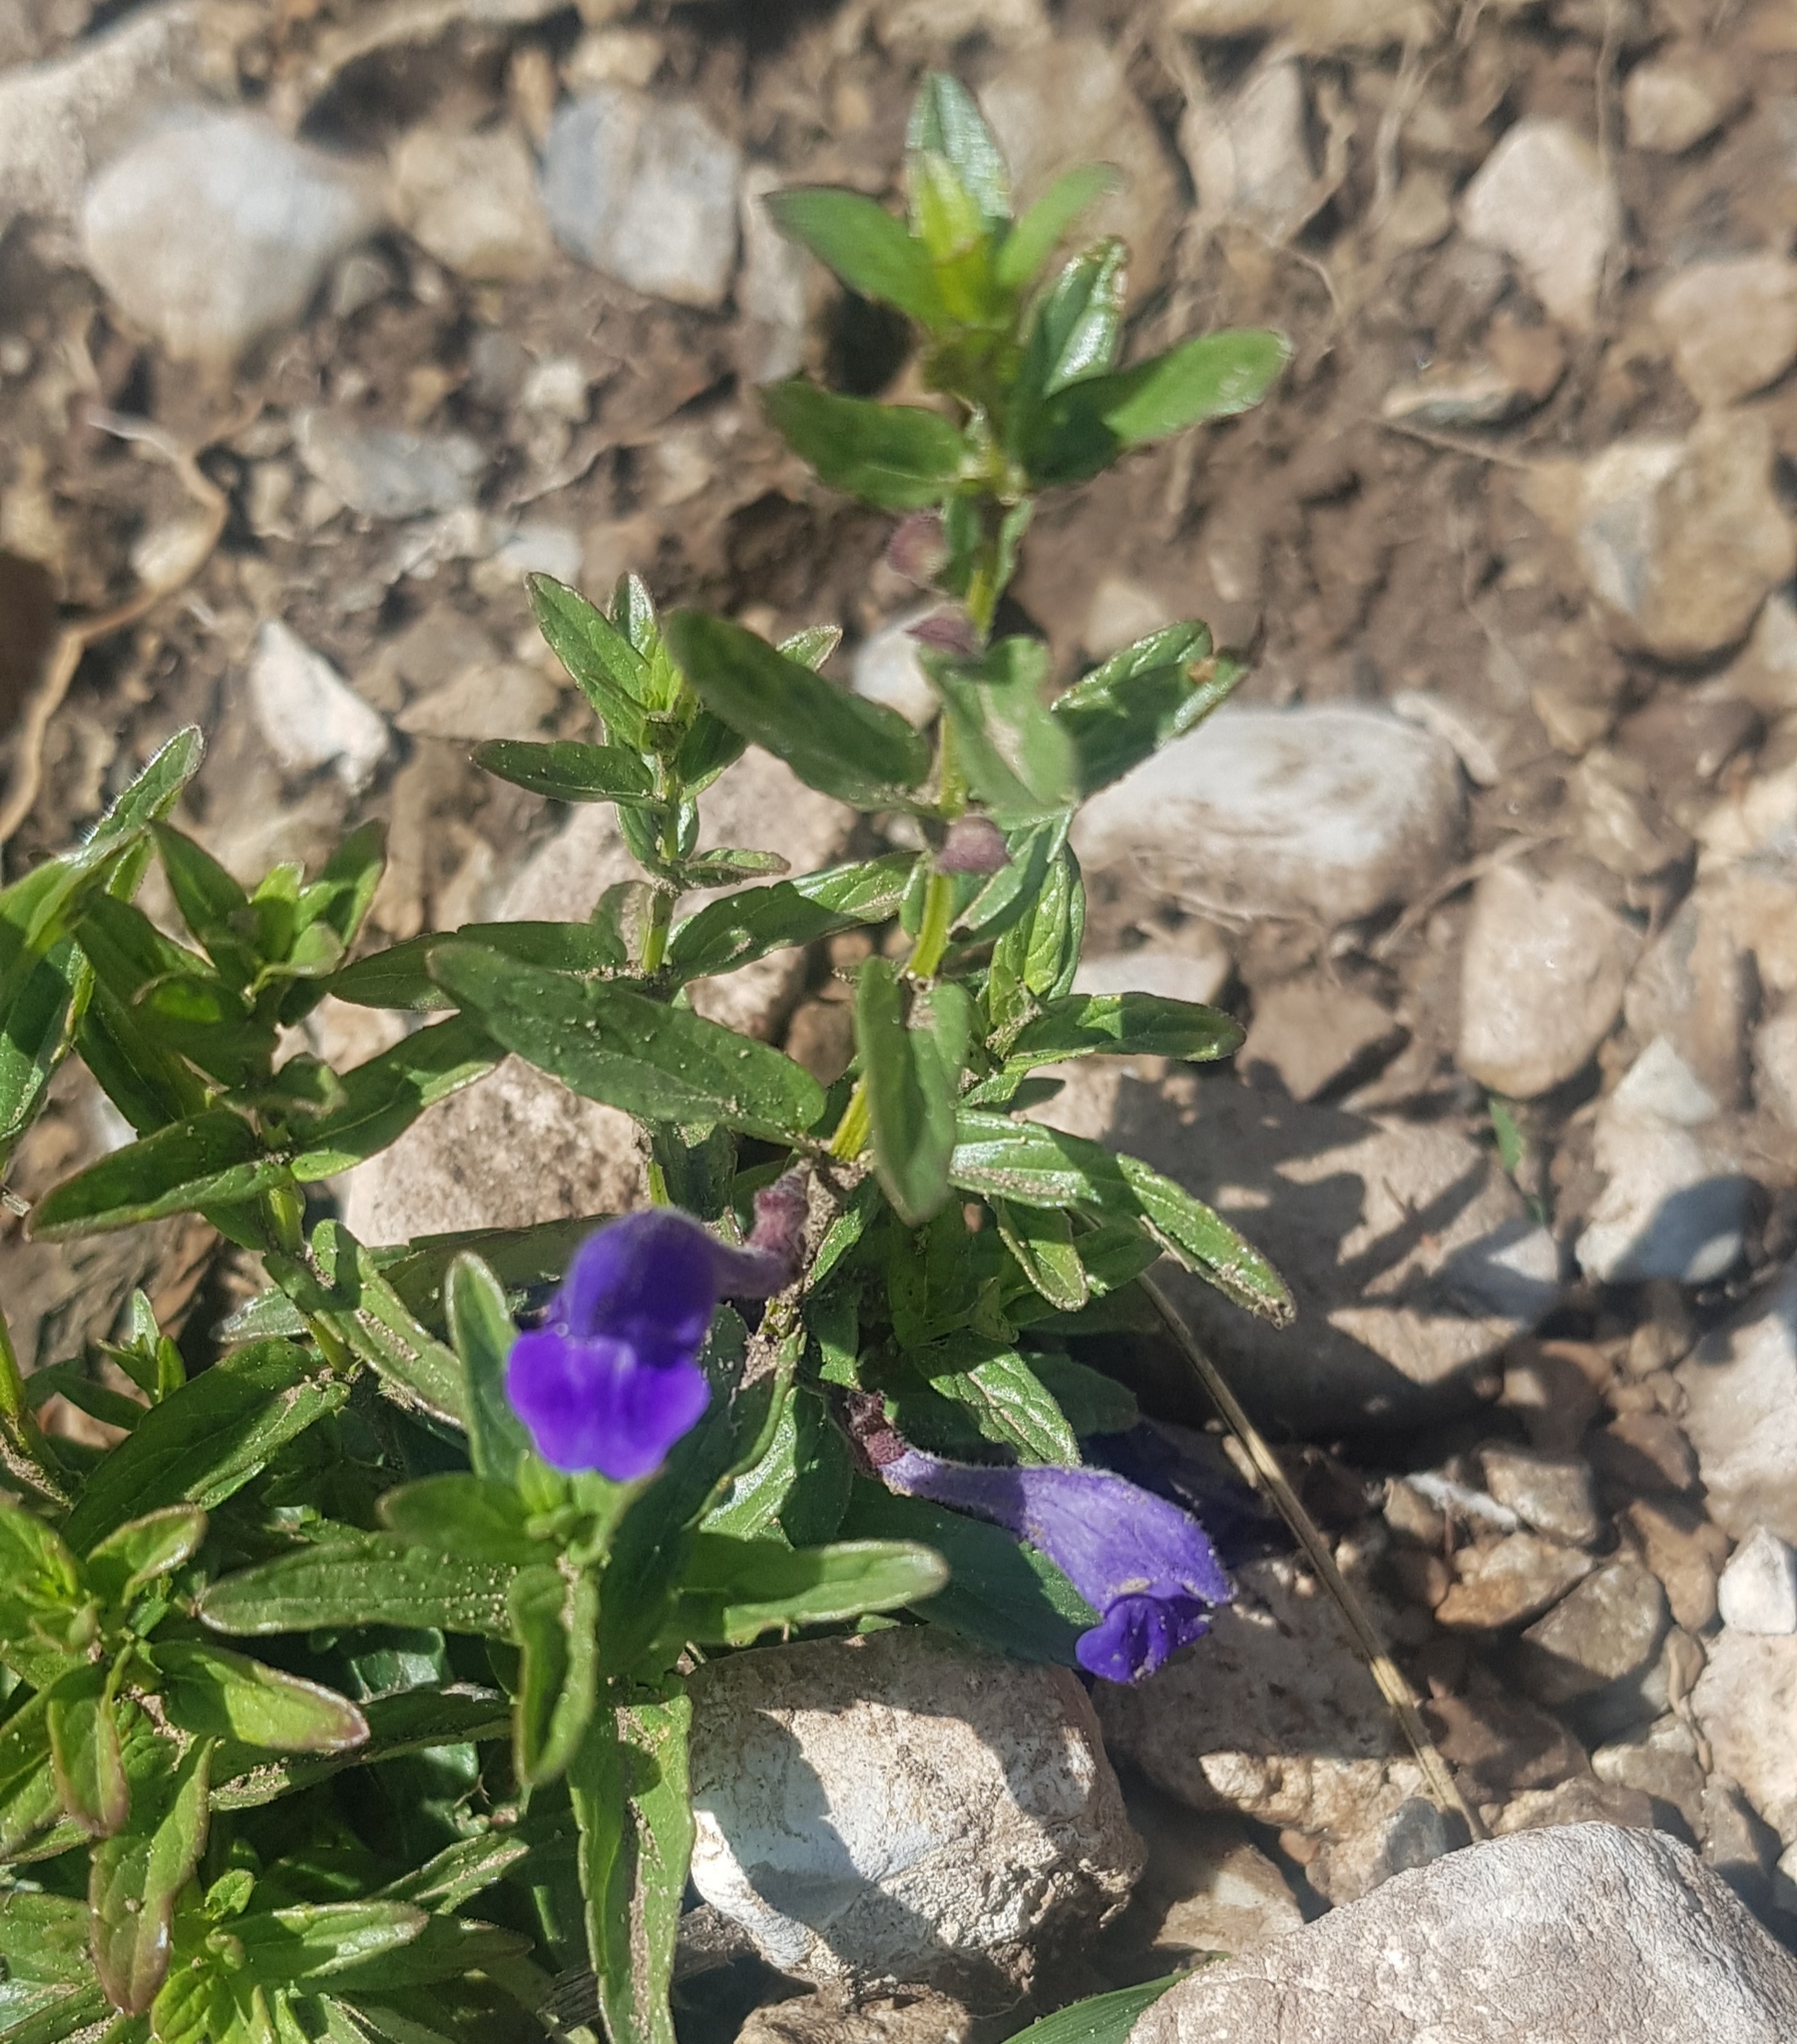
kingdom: Plantae
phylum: Tracheophyta
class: Magnoliopsida
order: Lamiales
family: Lamiaceae
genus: Scutellaria
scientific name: Scutellaria scordiifolia
